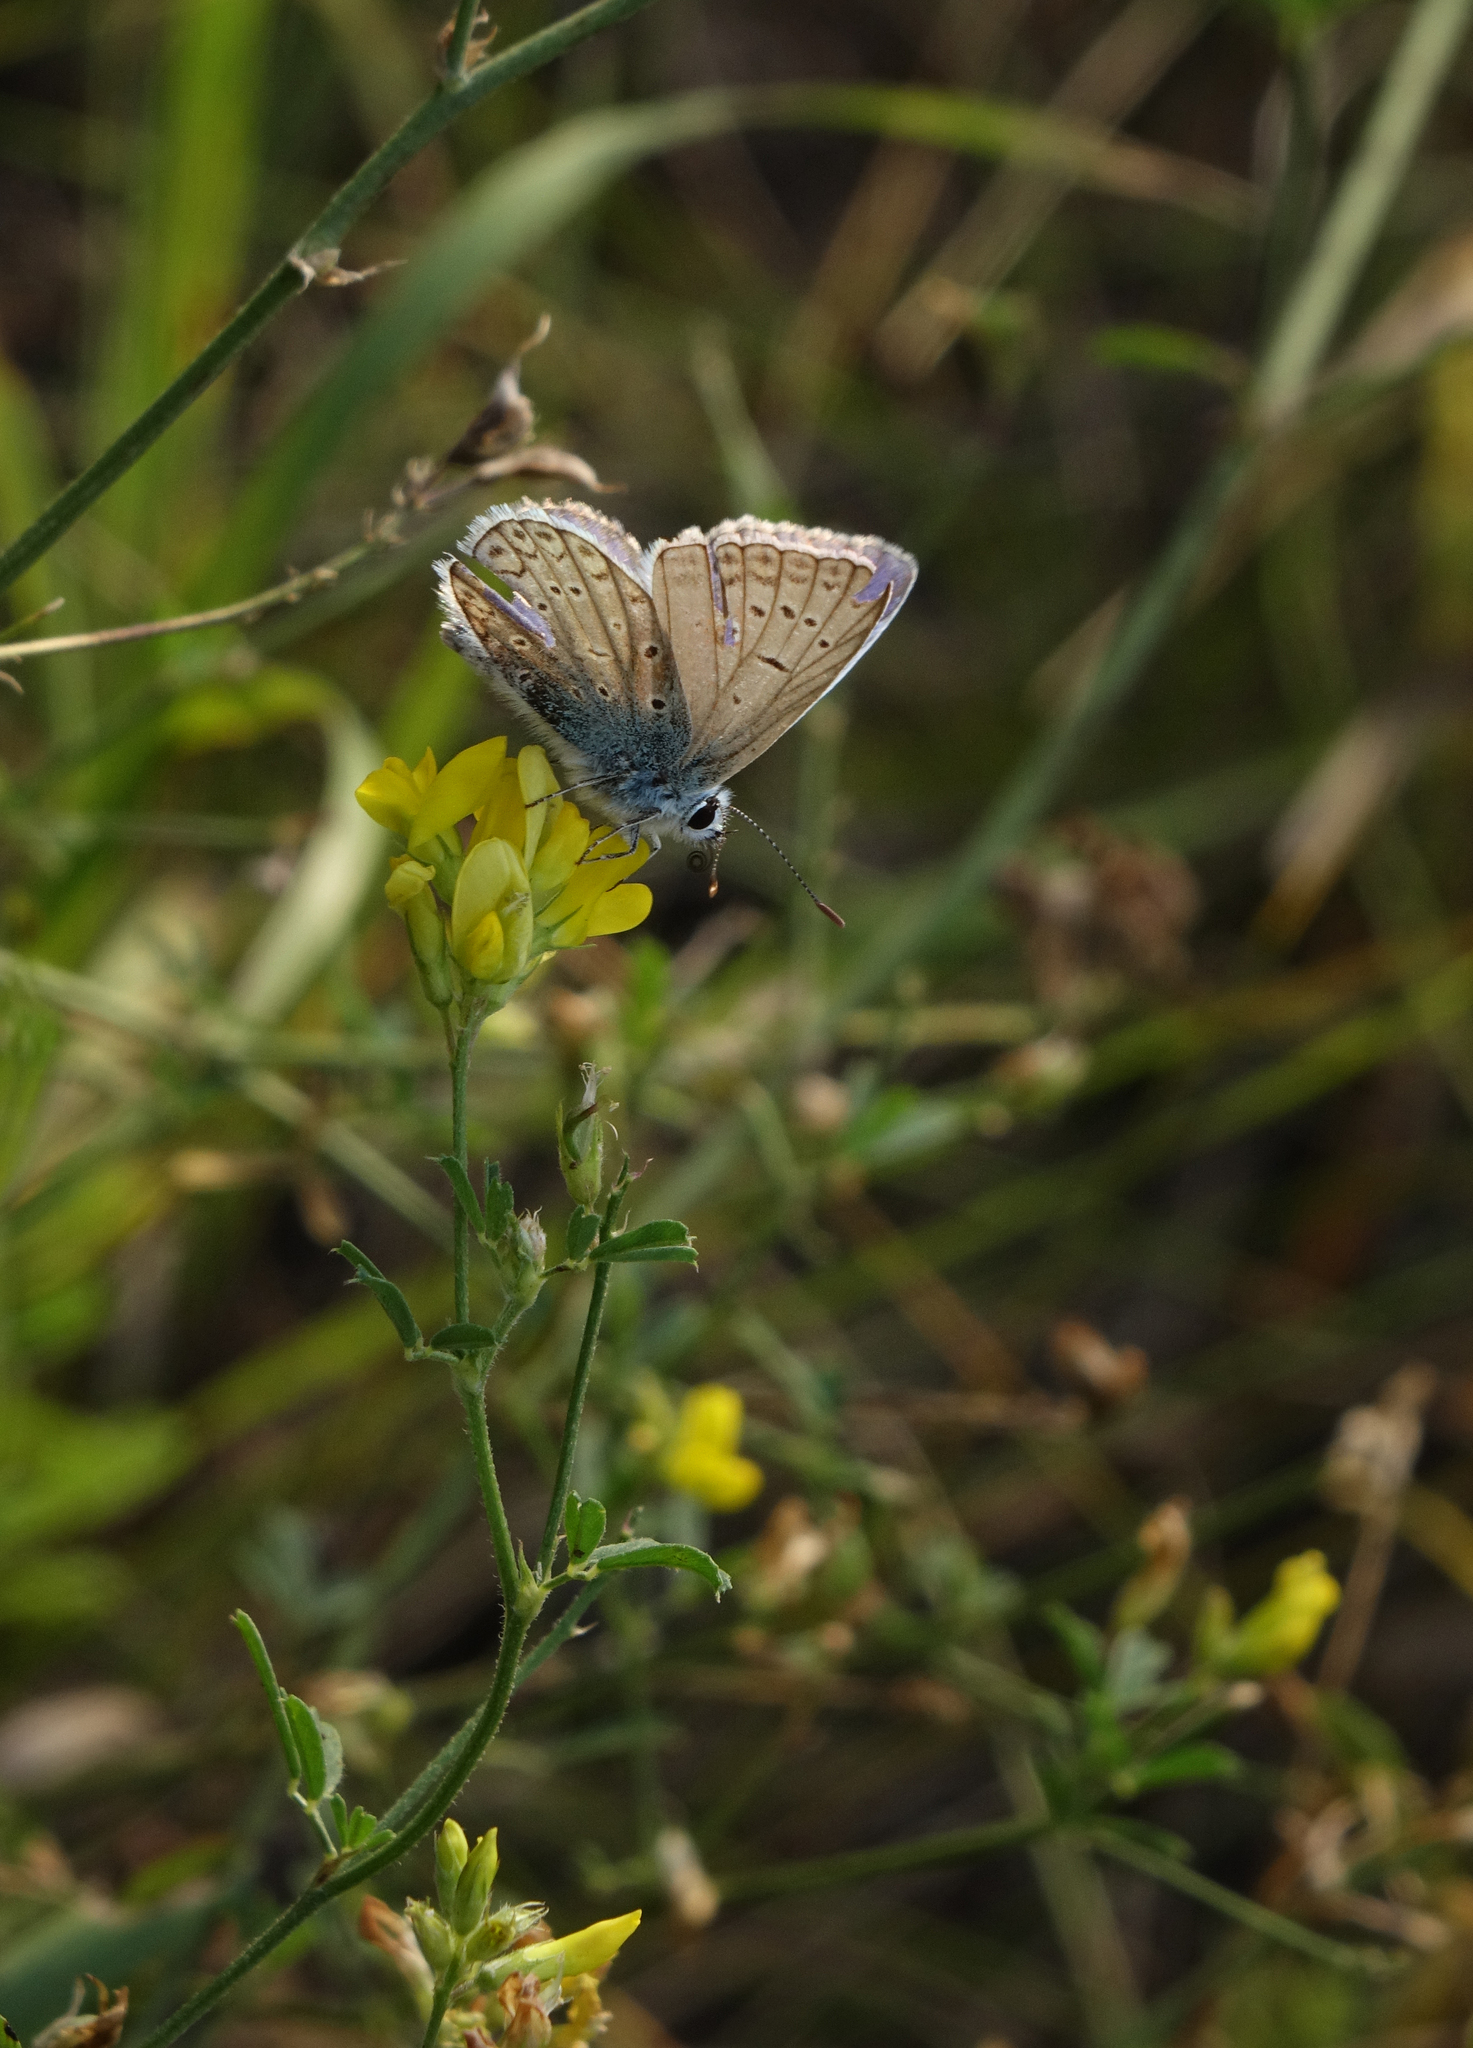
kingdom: Plantae
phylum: Tracheophyta
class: Magnoliopsida
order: Fabales
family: Fabaceae
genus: Medicago
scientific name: Medicago varia
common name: Sand lucerne
